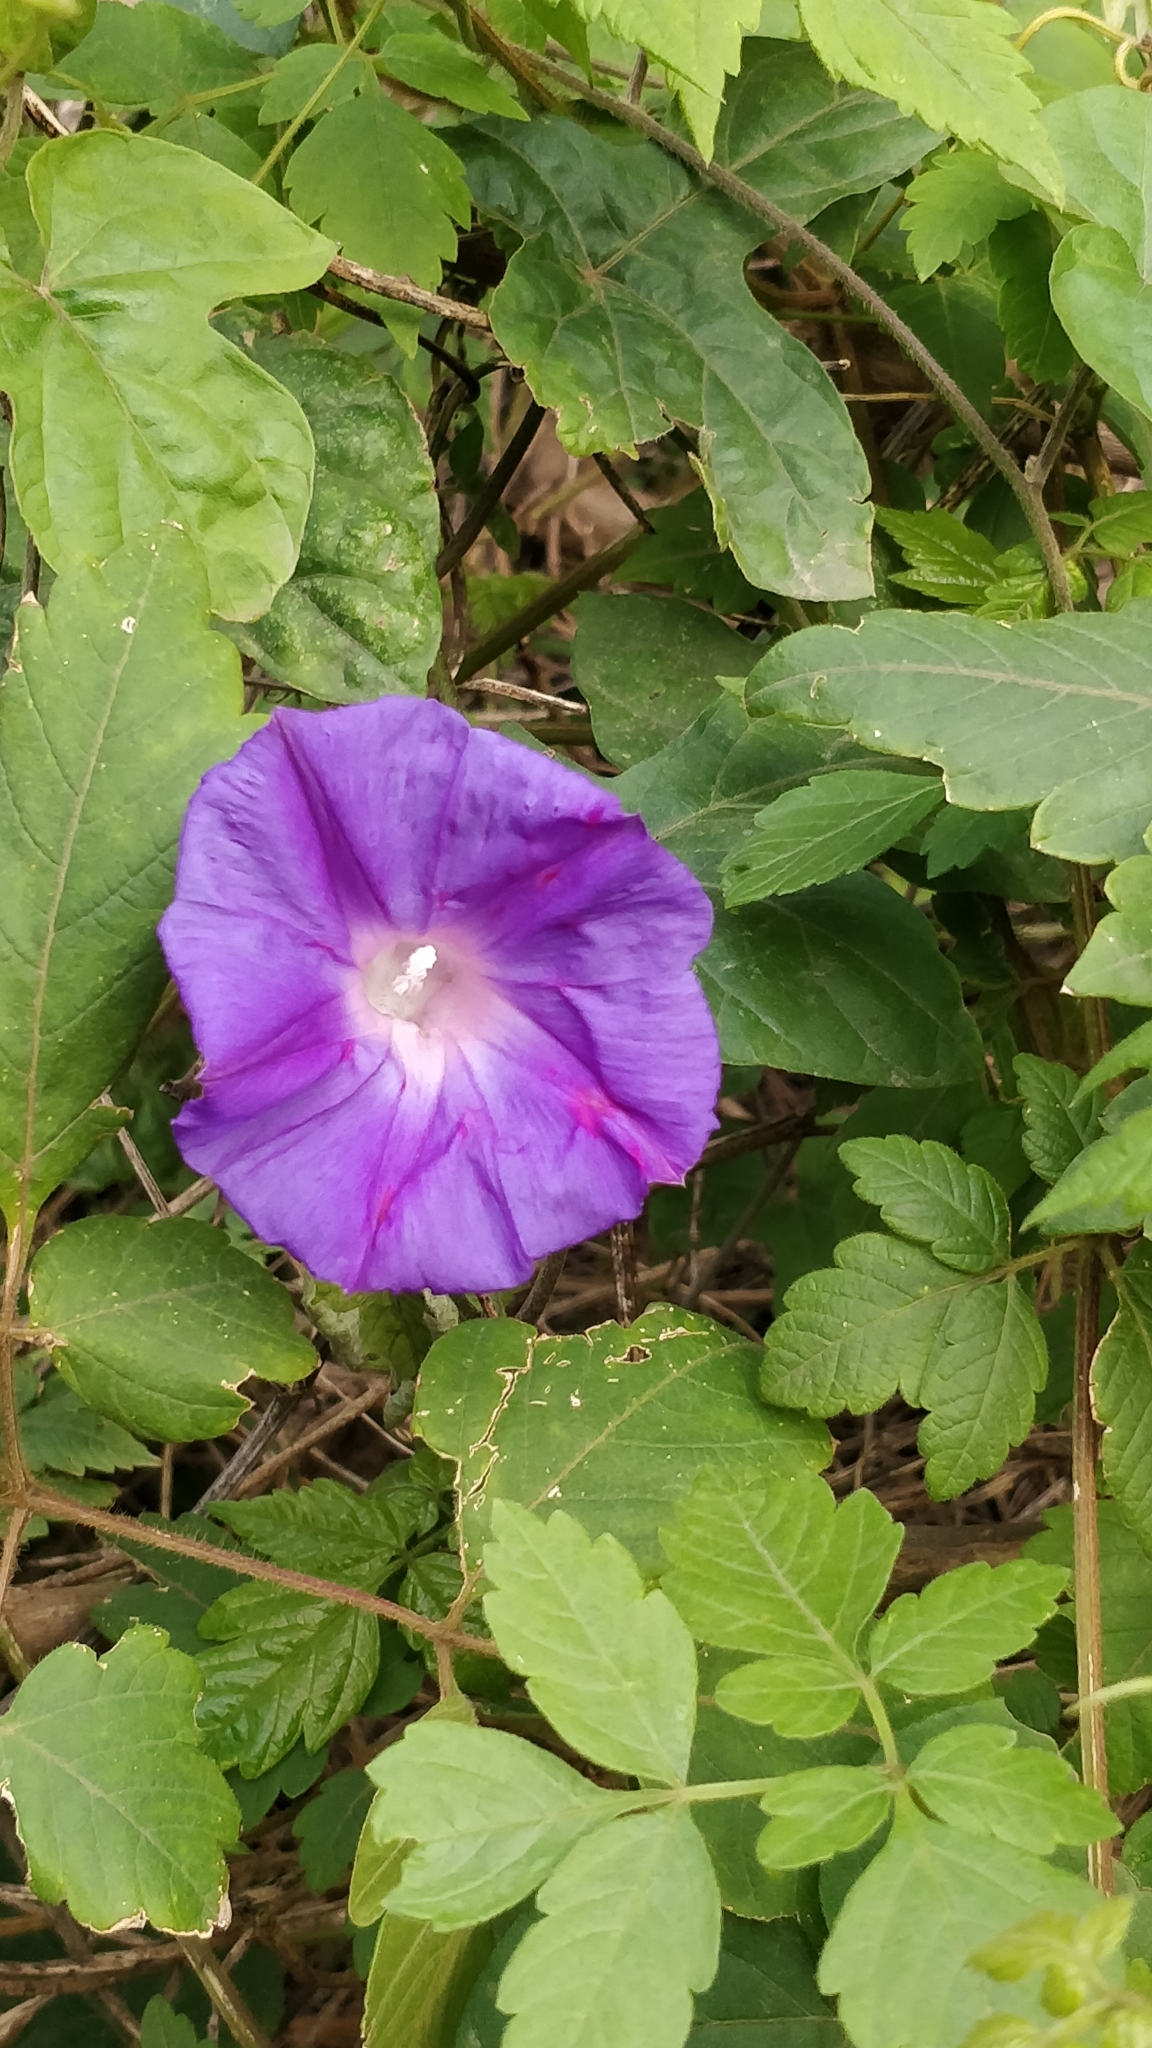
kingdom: Plantae
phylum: Tracheophyta
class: Magnoliopsida
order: Solanales
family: Convolvulaceae
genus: Ipomoea
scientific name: Ipomoea indica
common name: Blue dawnflower
